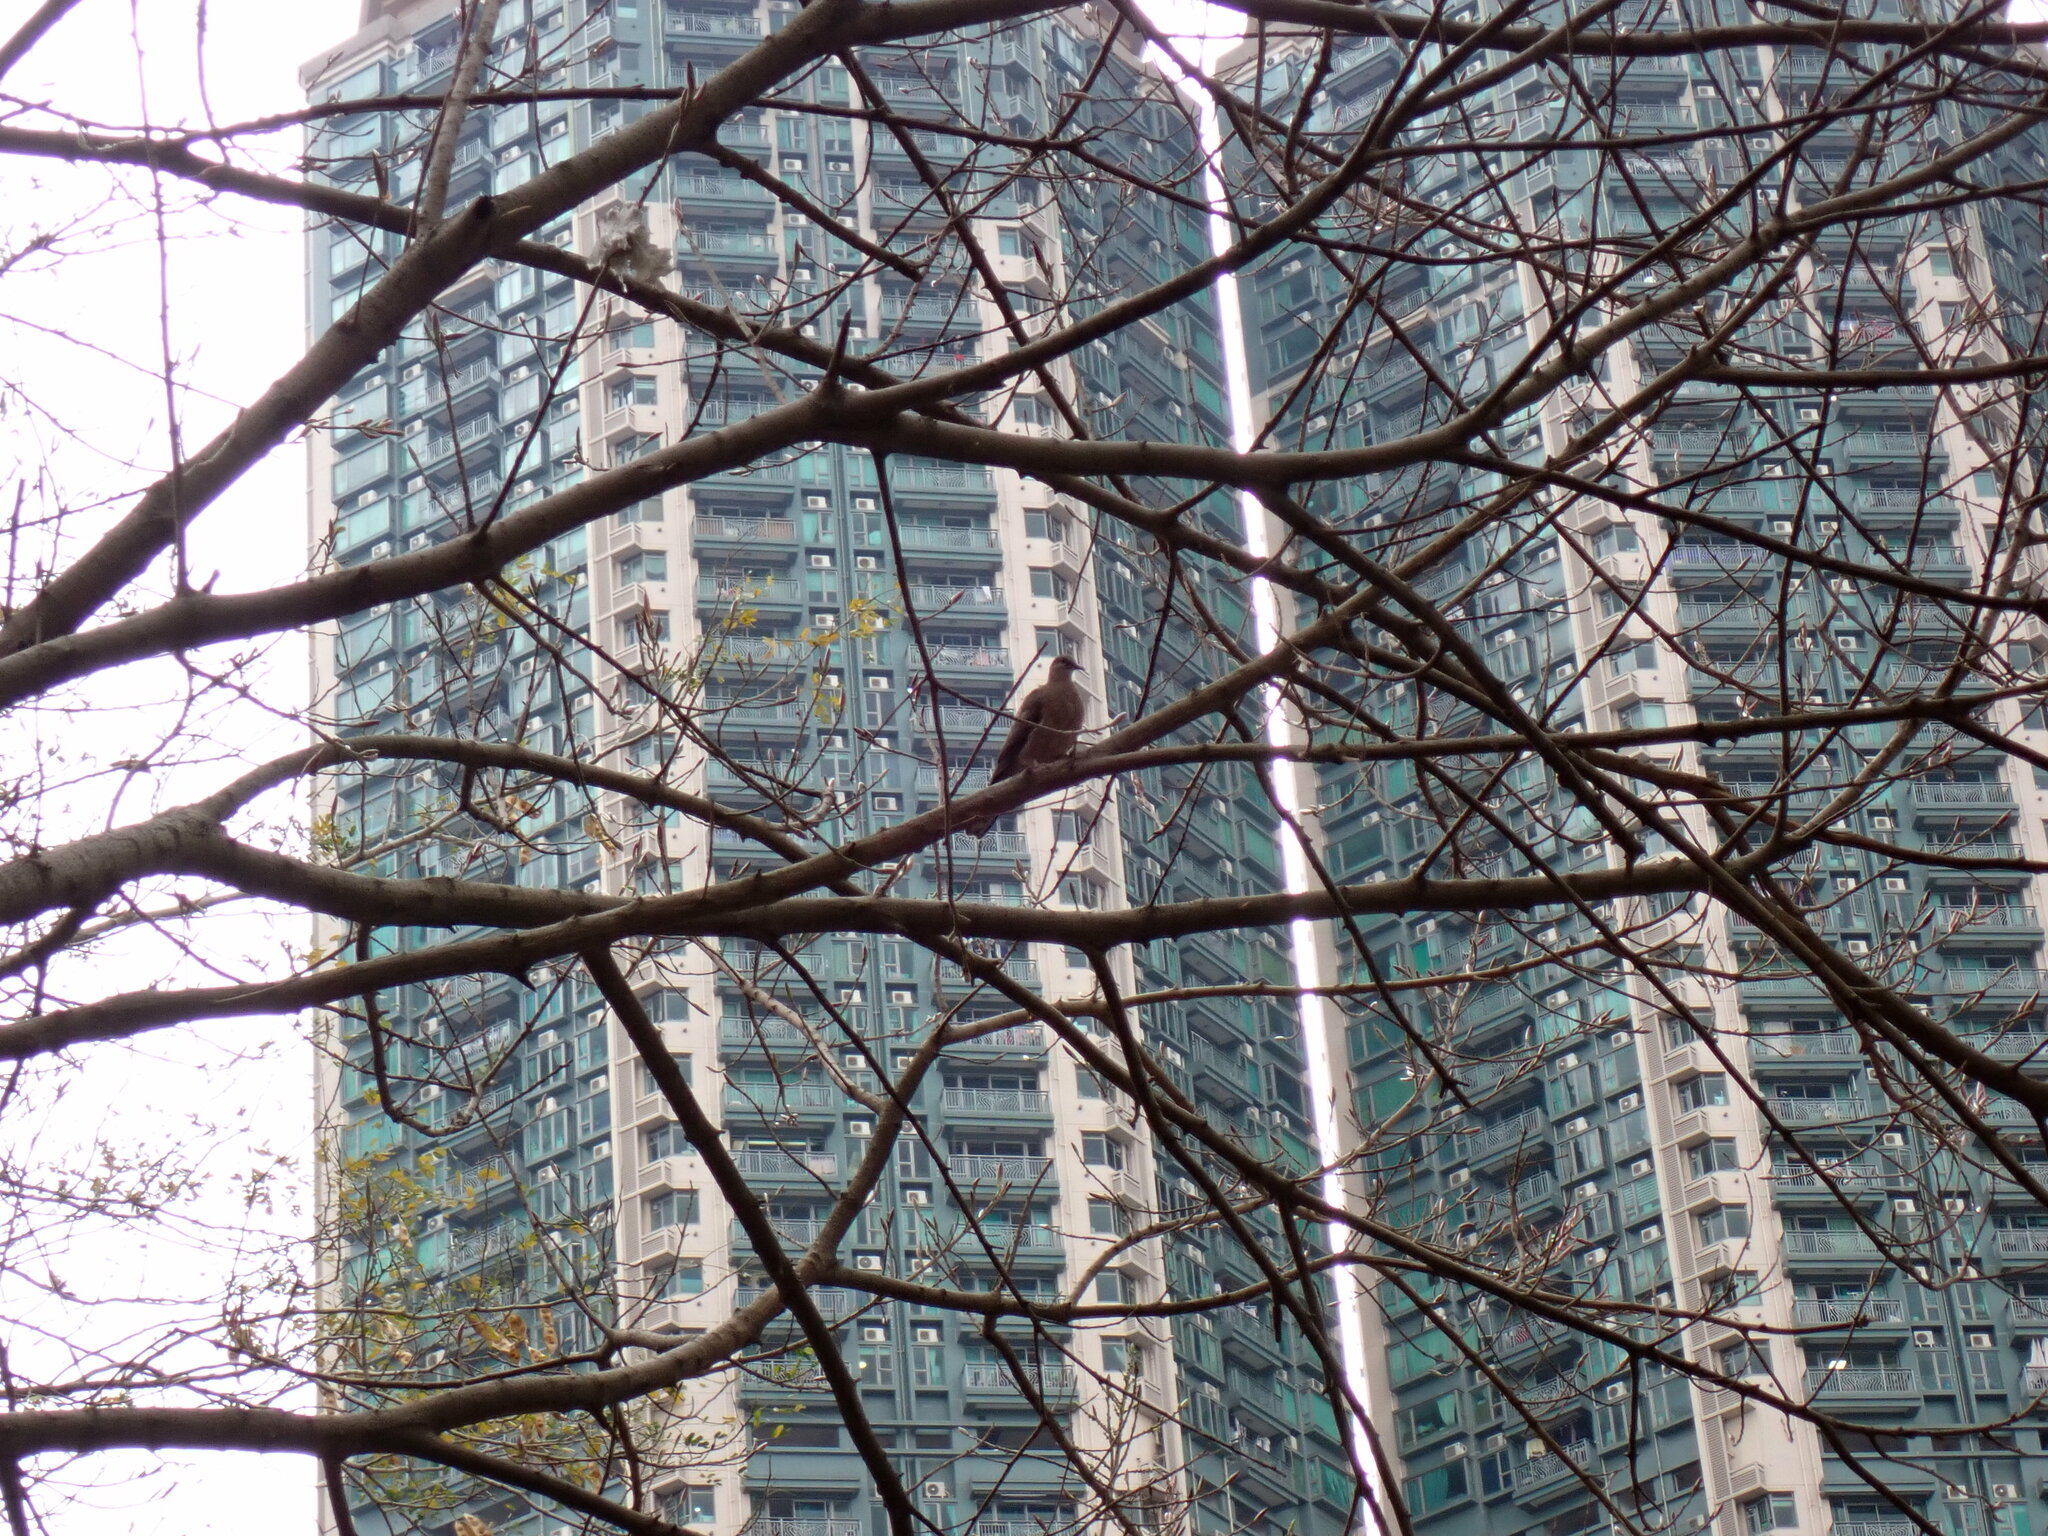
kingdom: Animalia
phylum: Chordata
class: Aves
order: Columbiformes
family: Columbidae
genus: Spilopelia
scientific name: Spilopelia chinensis
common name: Spotted dove
